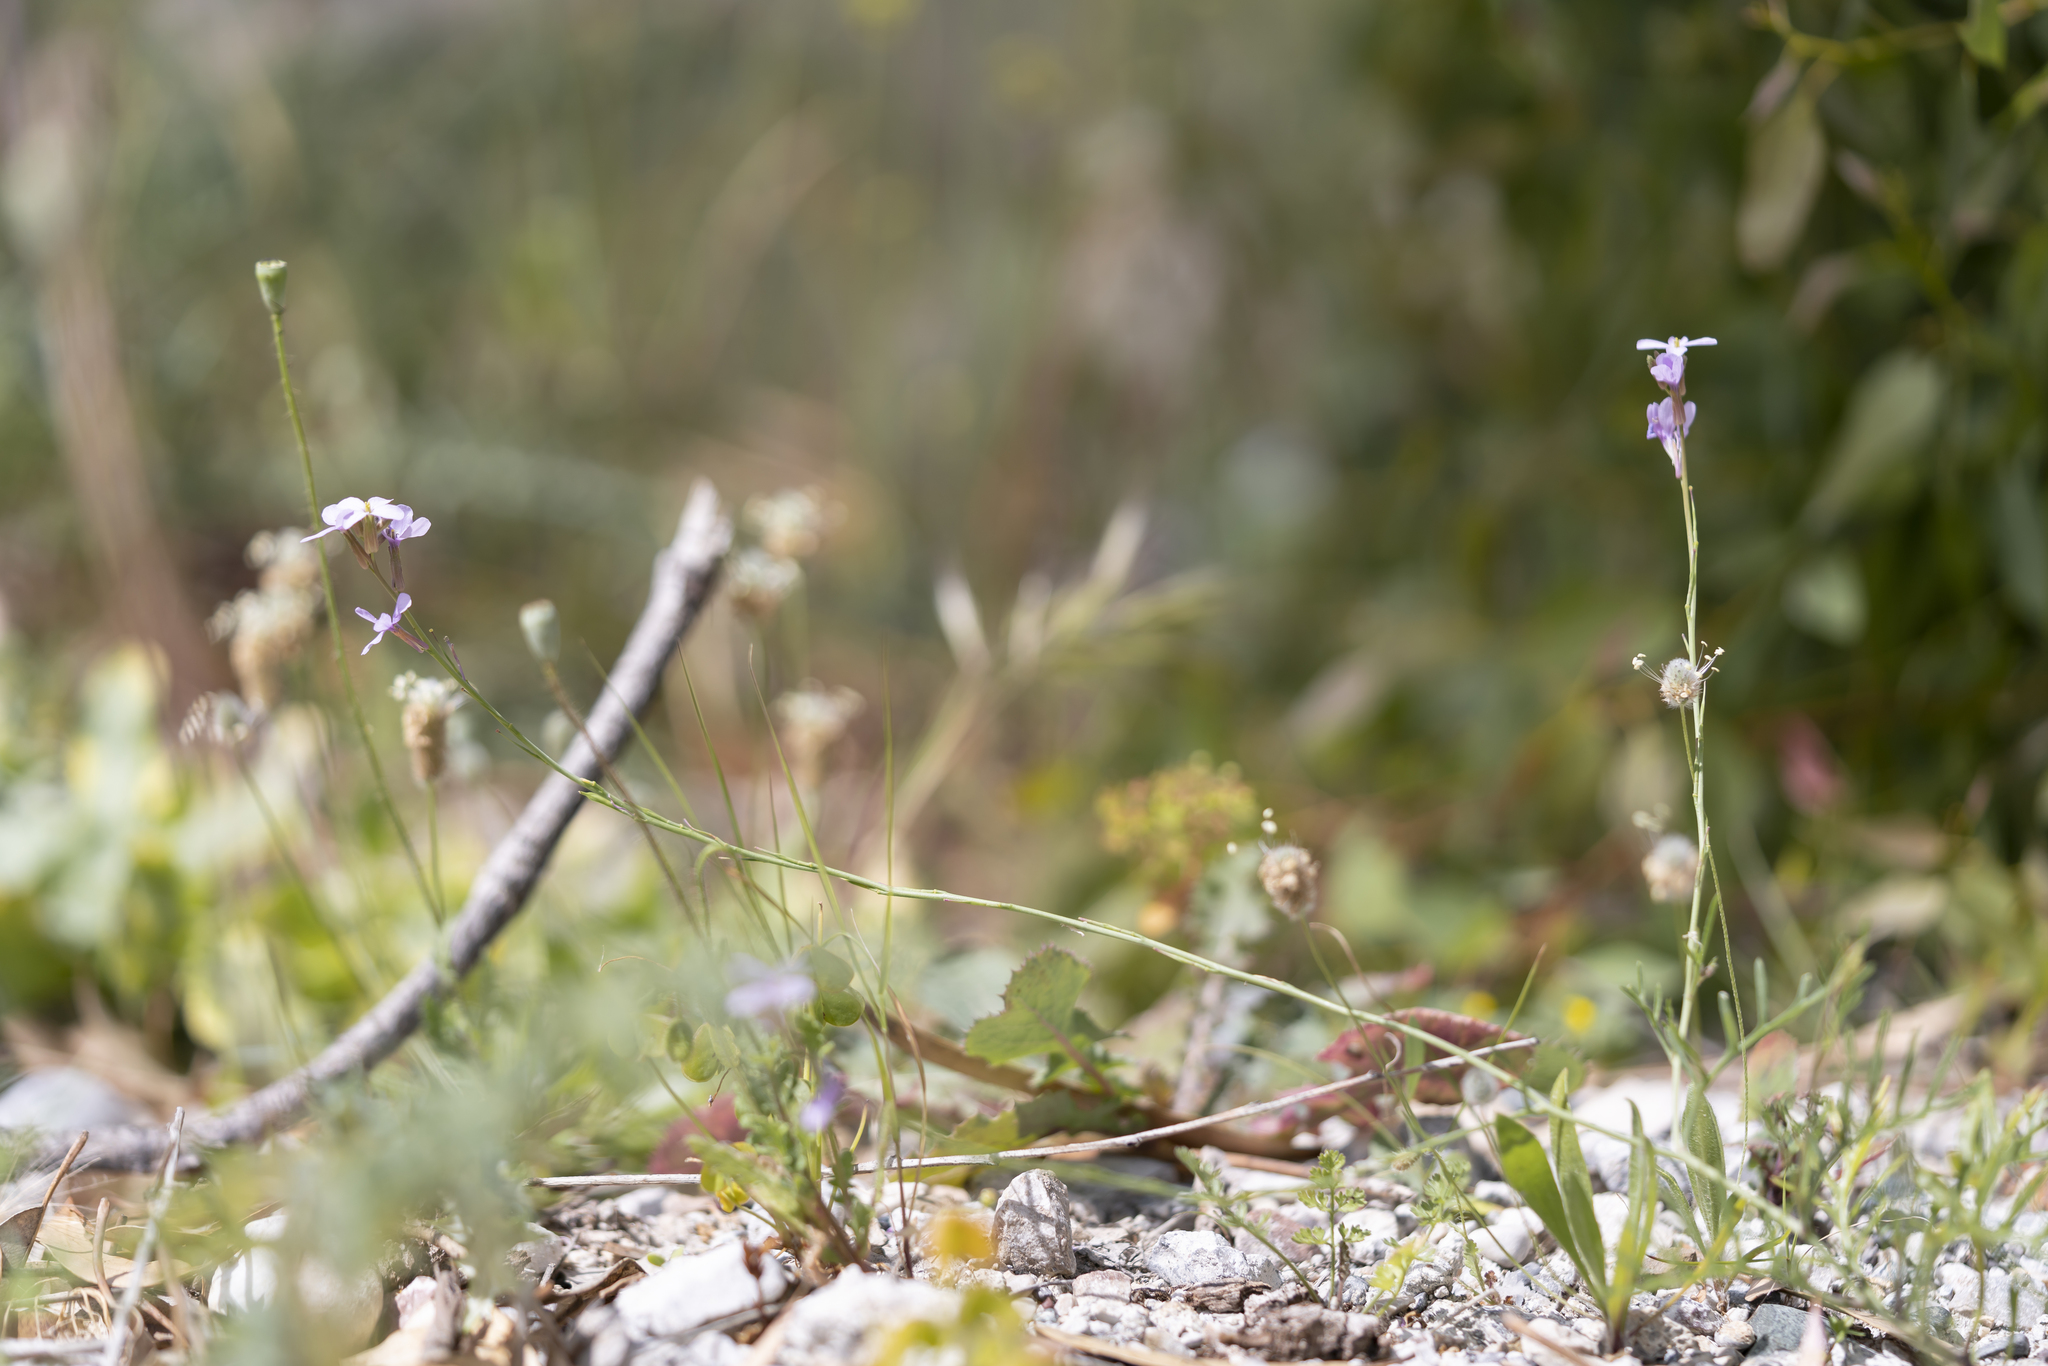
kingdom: Plantae
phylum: Tracheophyta
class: Magnoliopsida
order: Brassicales
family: Brassicaceae
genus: Erucaria
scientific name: Erucaria hispanica
